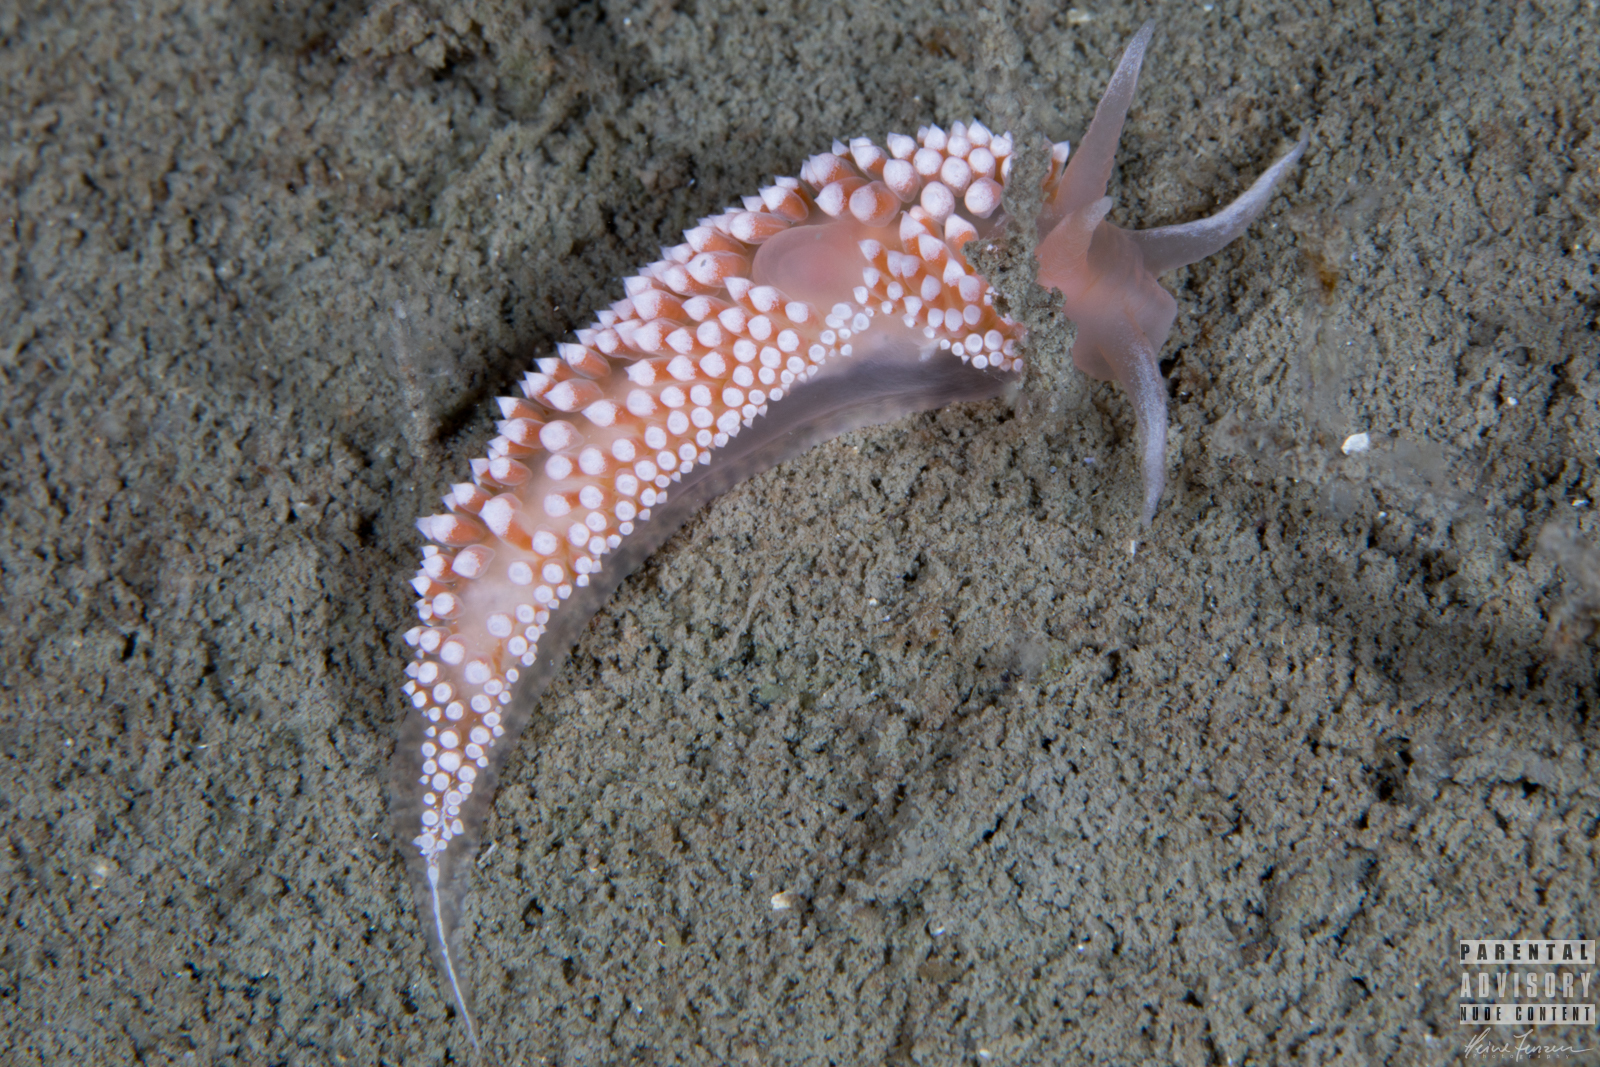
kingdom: Animalia
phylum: Mollusca
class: Gastropoda
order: Nudibranchia
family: Coryphellidae
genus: Coryphella
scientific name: Coryphella verrucosa
